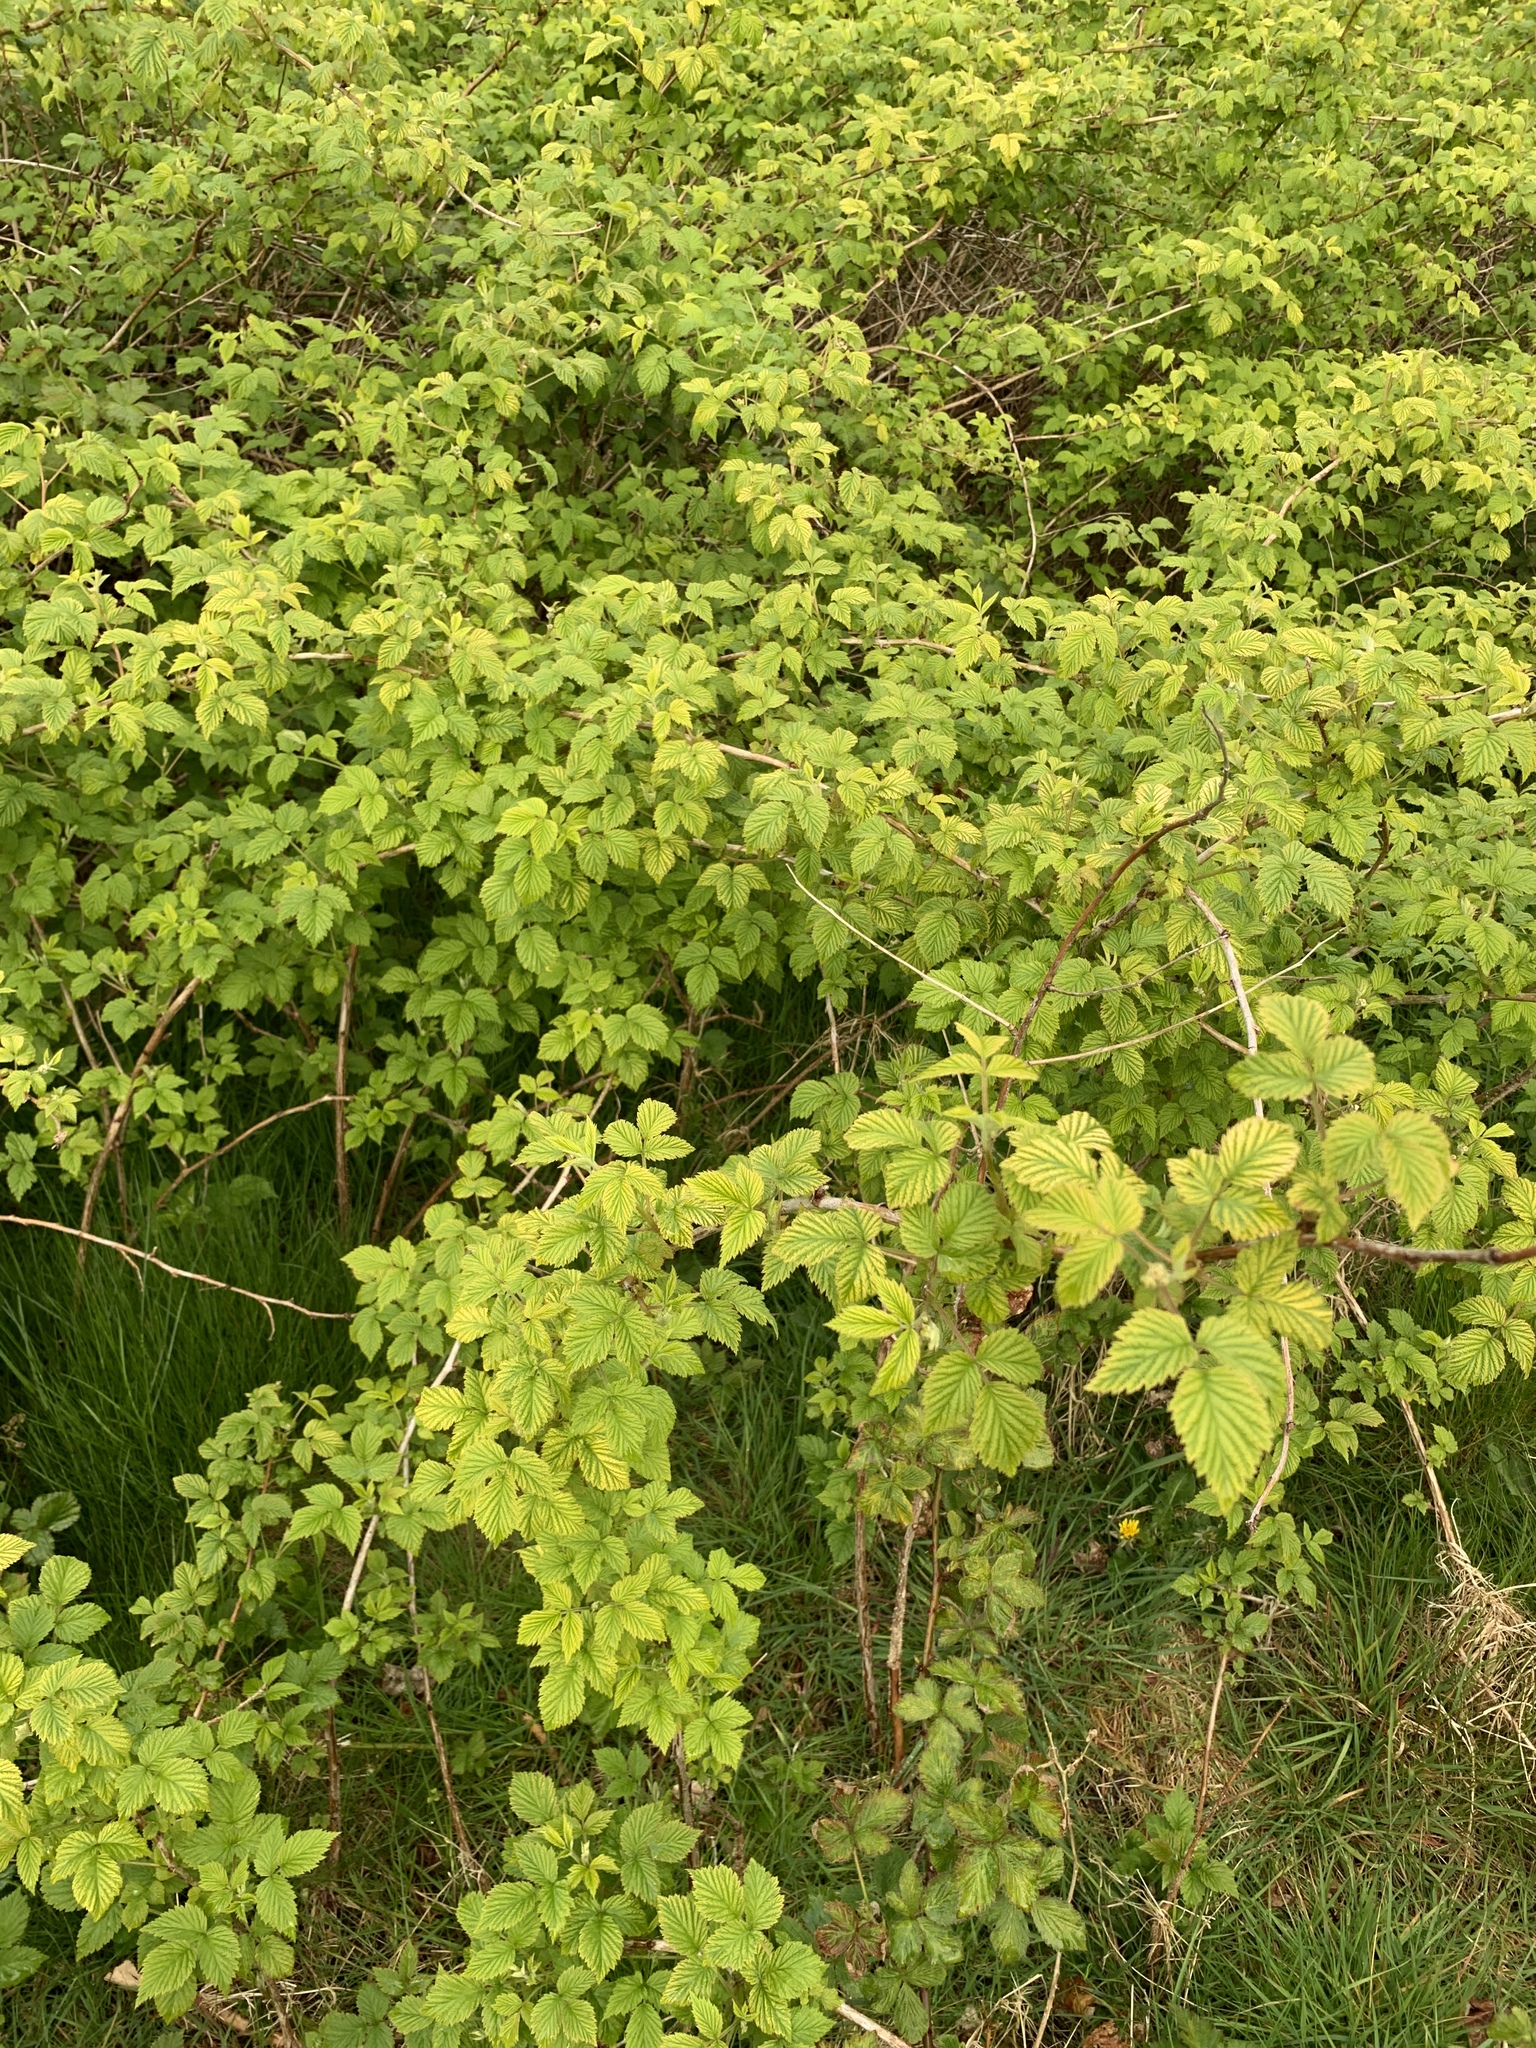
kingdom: Plantae
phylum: Tracheophyta
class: Magnoliopsida
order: Rosales
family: Rosaceae
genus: Rubus
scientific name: Rubus idaeus
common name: Raspberry
